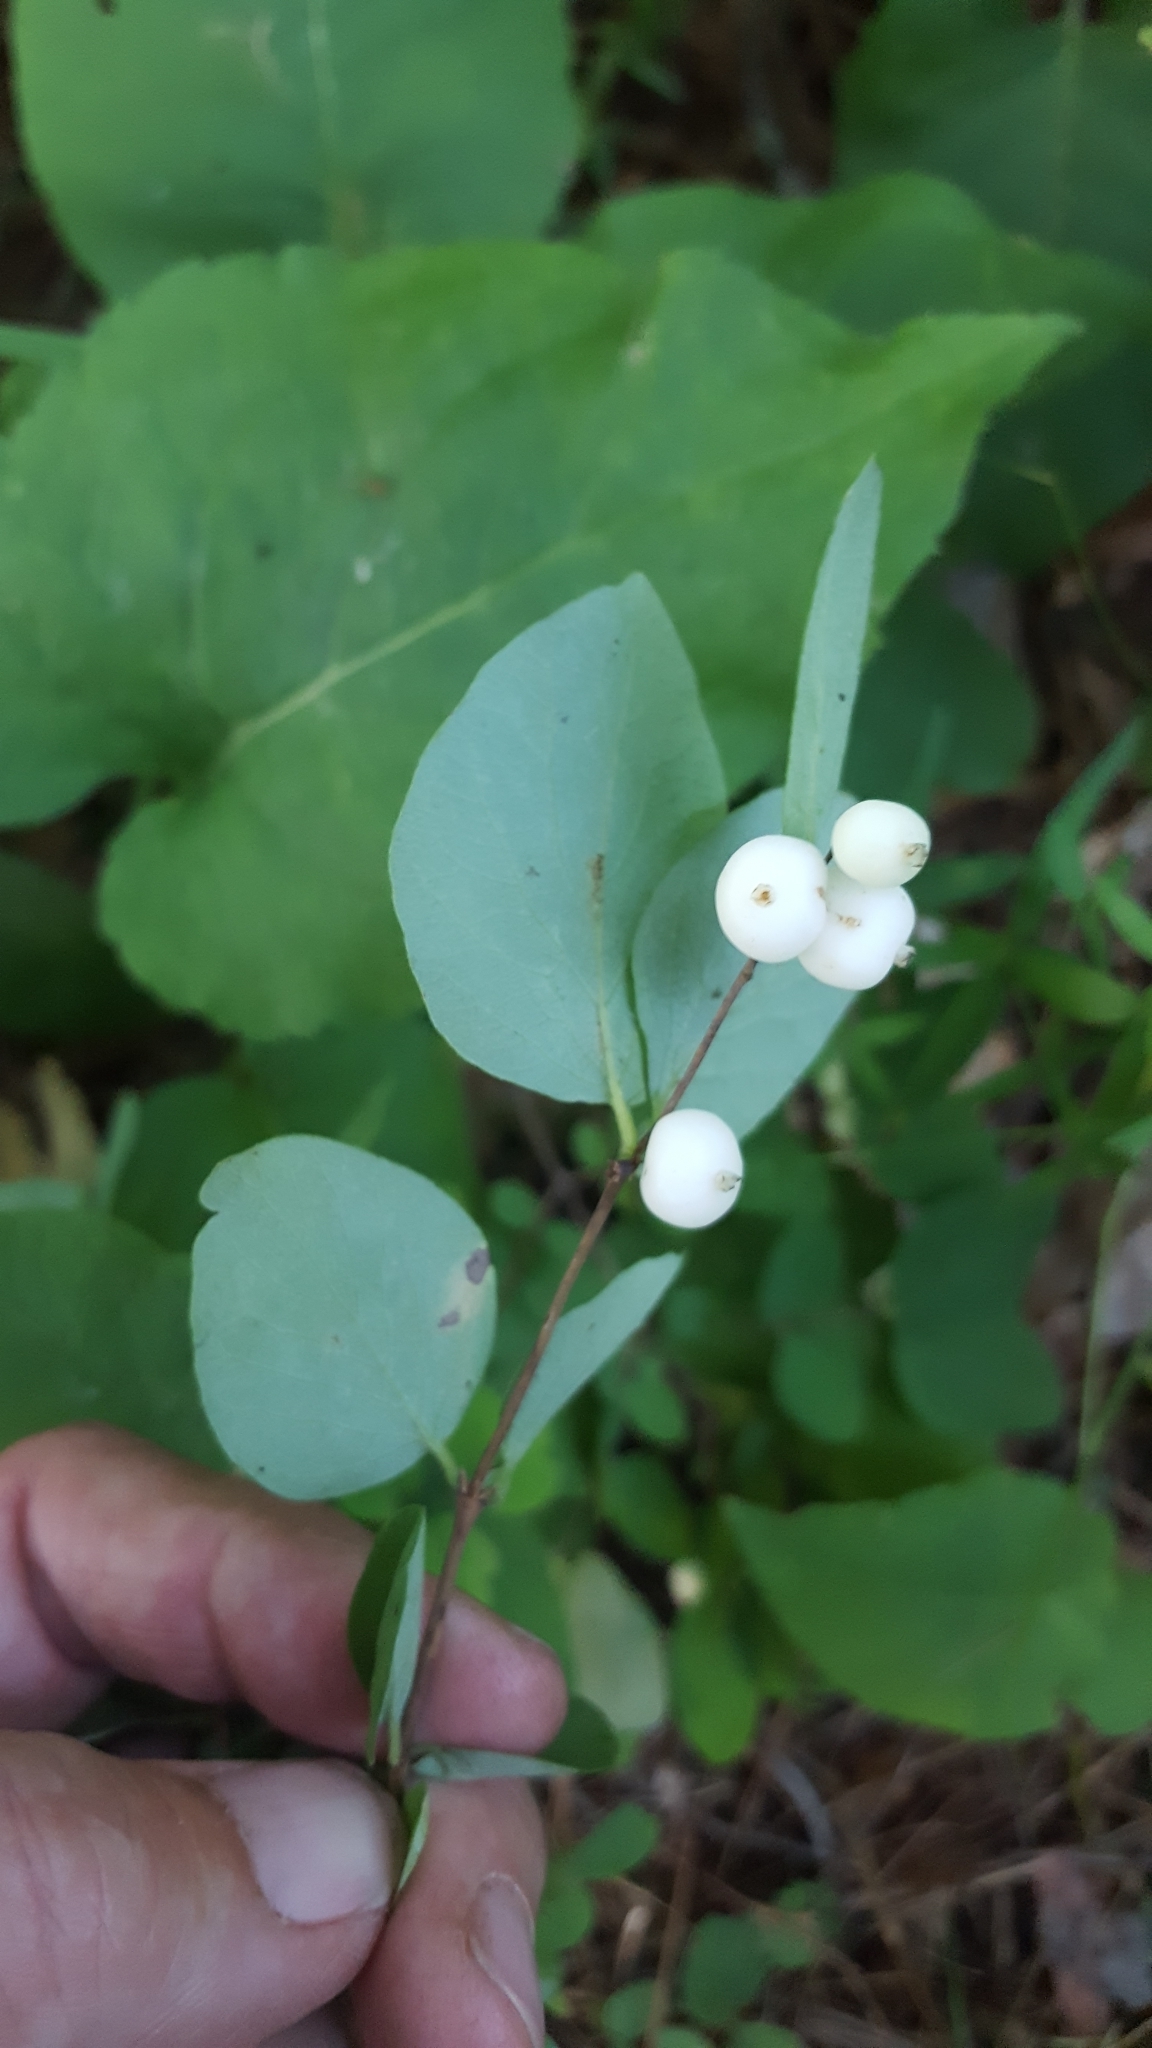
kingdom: Plantae
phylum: Tracheophyta
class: Magnoliopsida
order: Dipsacales
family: Caprifoliaceae
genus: Symphoricarpos
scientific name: Symphoricarpos albus
